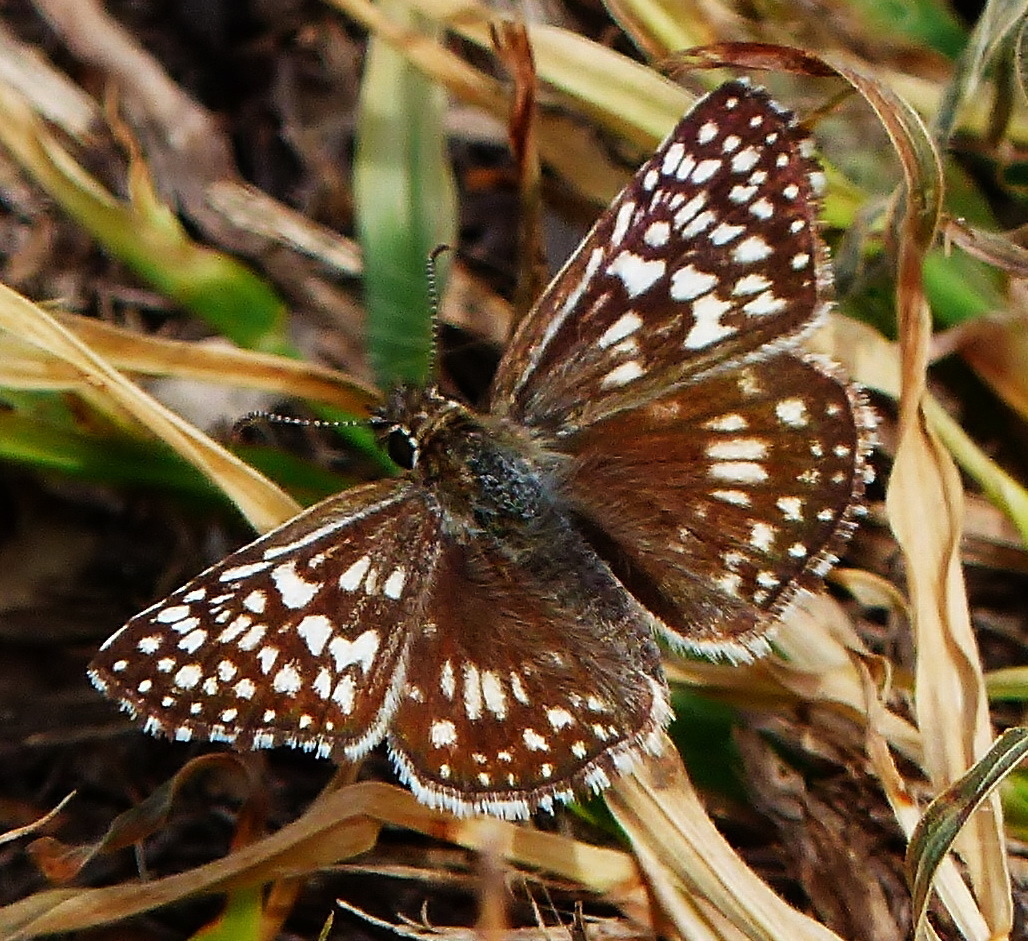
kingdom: Animalia
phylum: Arthropoda
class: Insecta
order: Lepidoptera
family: Hesperiidae
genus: Burnsius
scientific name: Burnsius philetas
